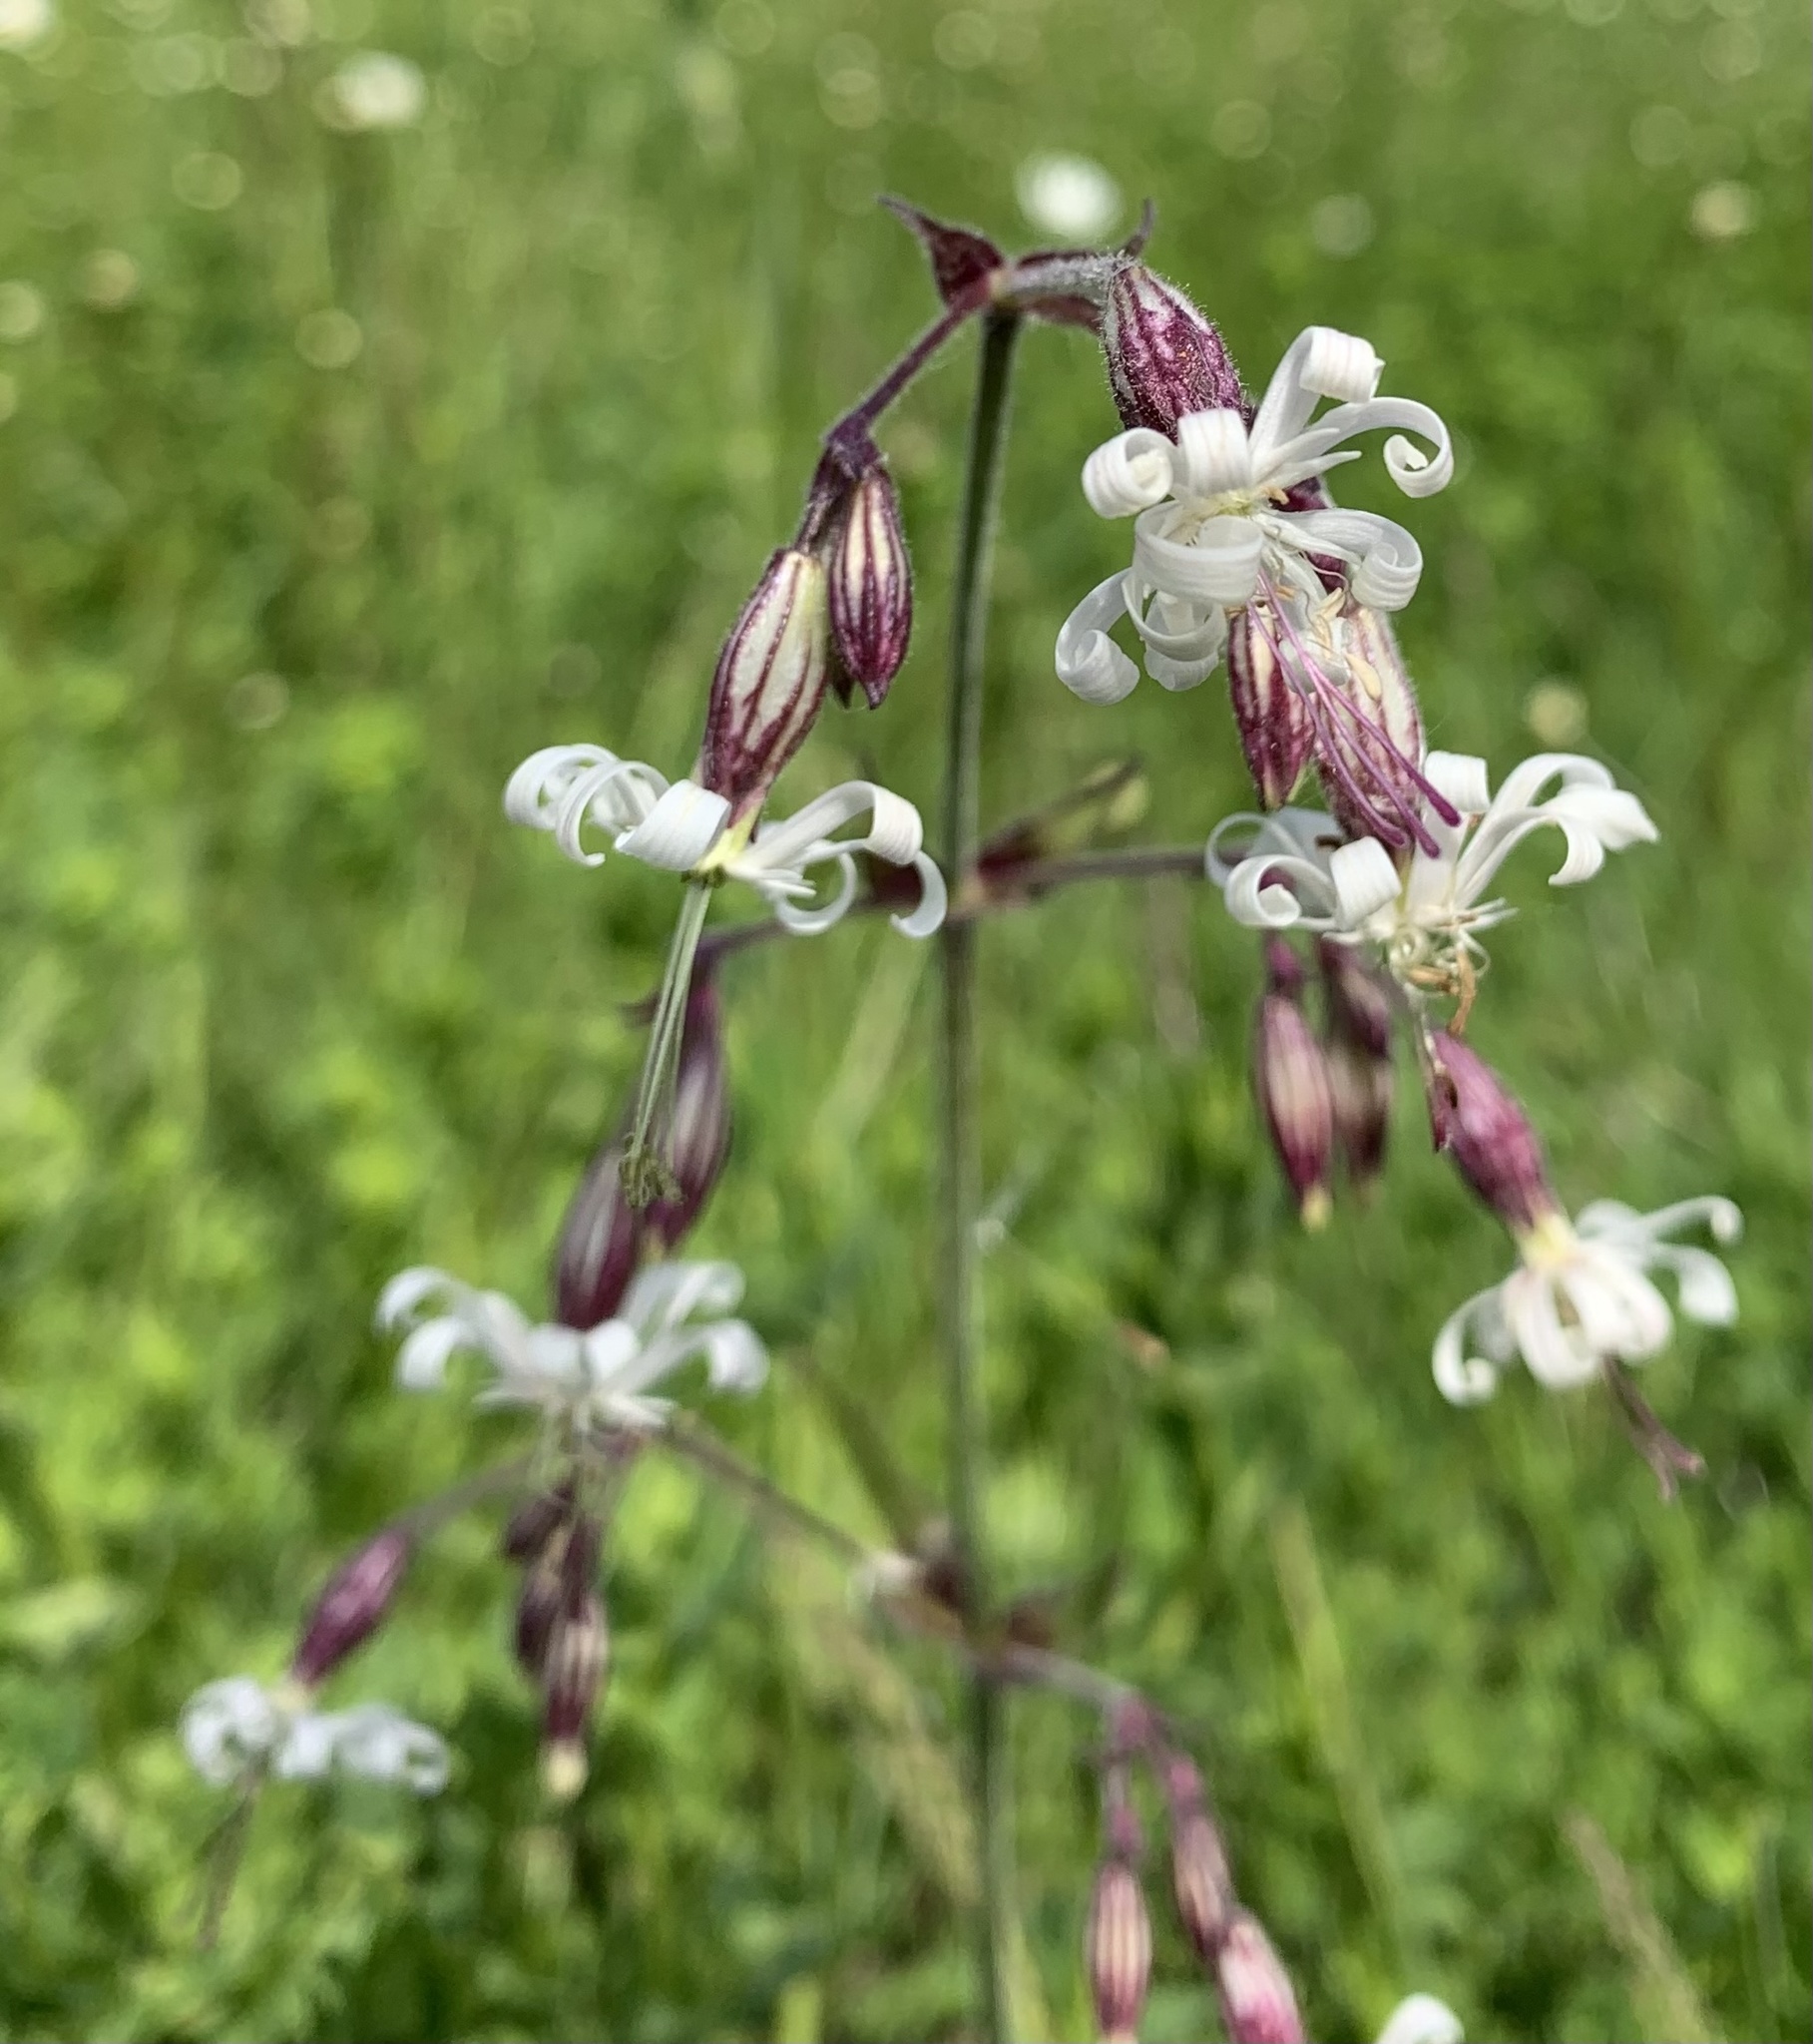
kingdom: Plantae
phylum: Tracheophyta
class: Magnoliopsida
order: Caryophyllales
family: Caryophyllaceae
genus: Silene
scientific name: Silene nutans
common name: Nottingham catchfly
